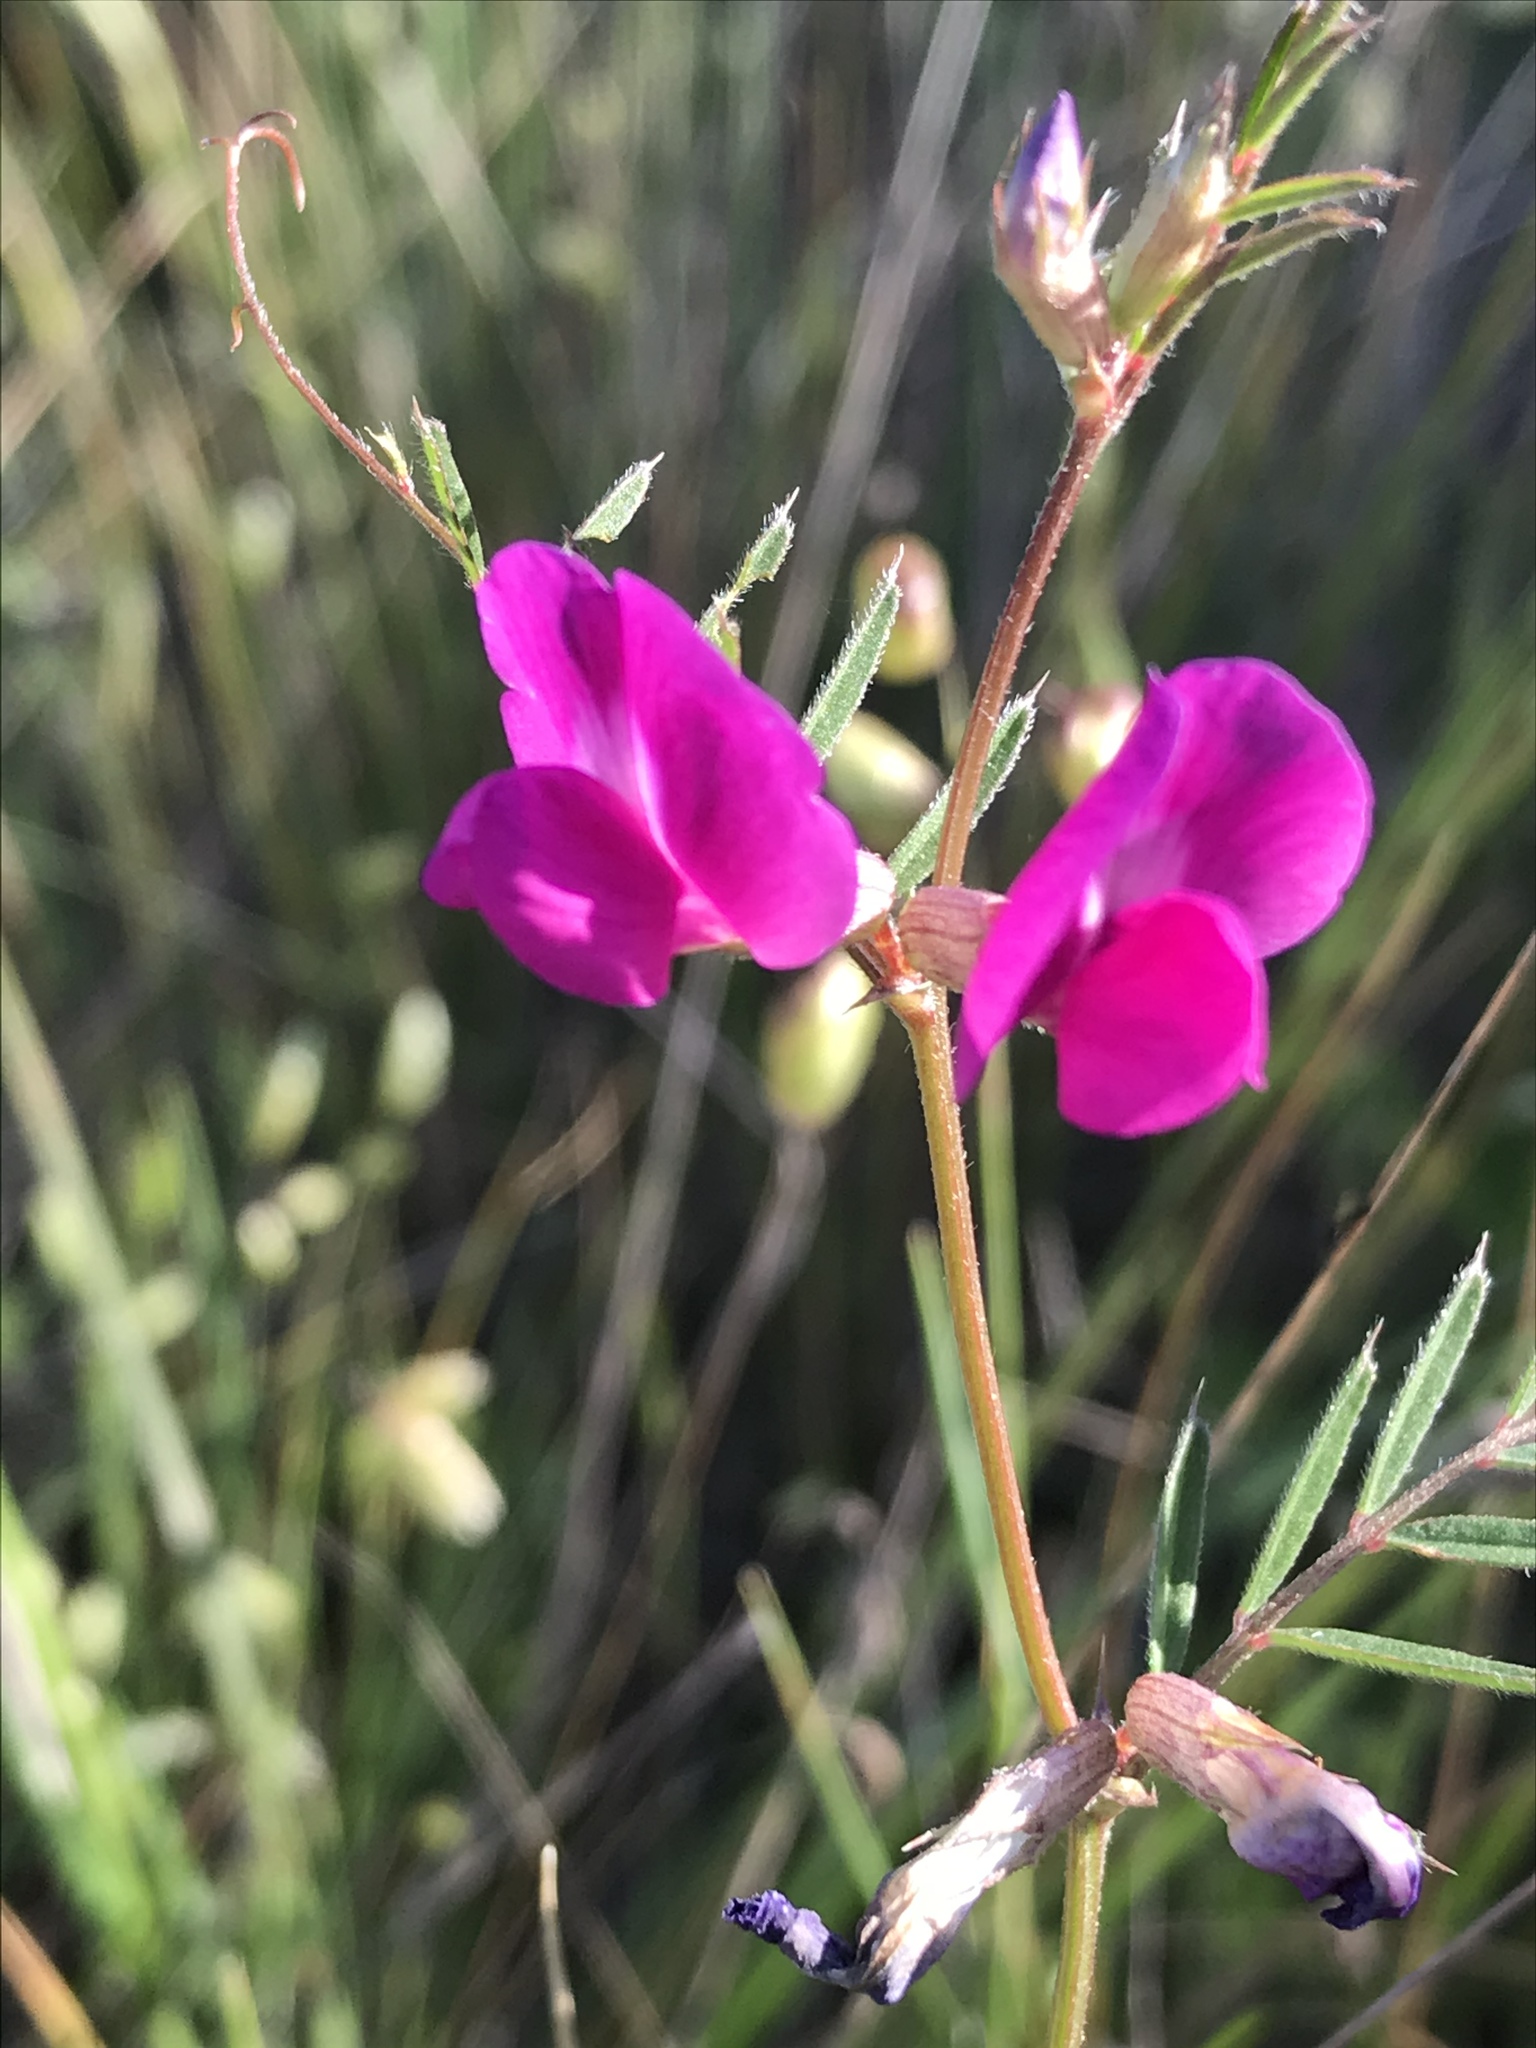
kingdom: Plantae
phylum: Tracheophyta
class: Magnoliopsida
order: Fabales
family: Fabaceae
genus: Vicia
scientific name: Vicia sativa
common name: Garden vetch
